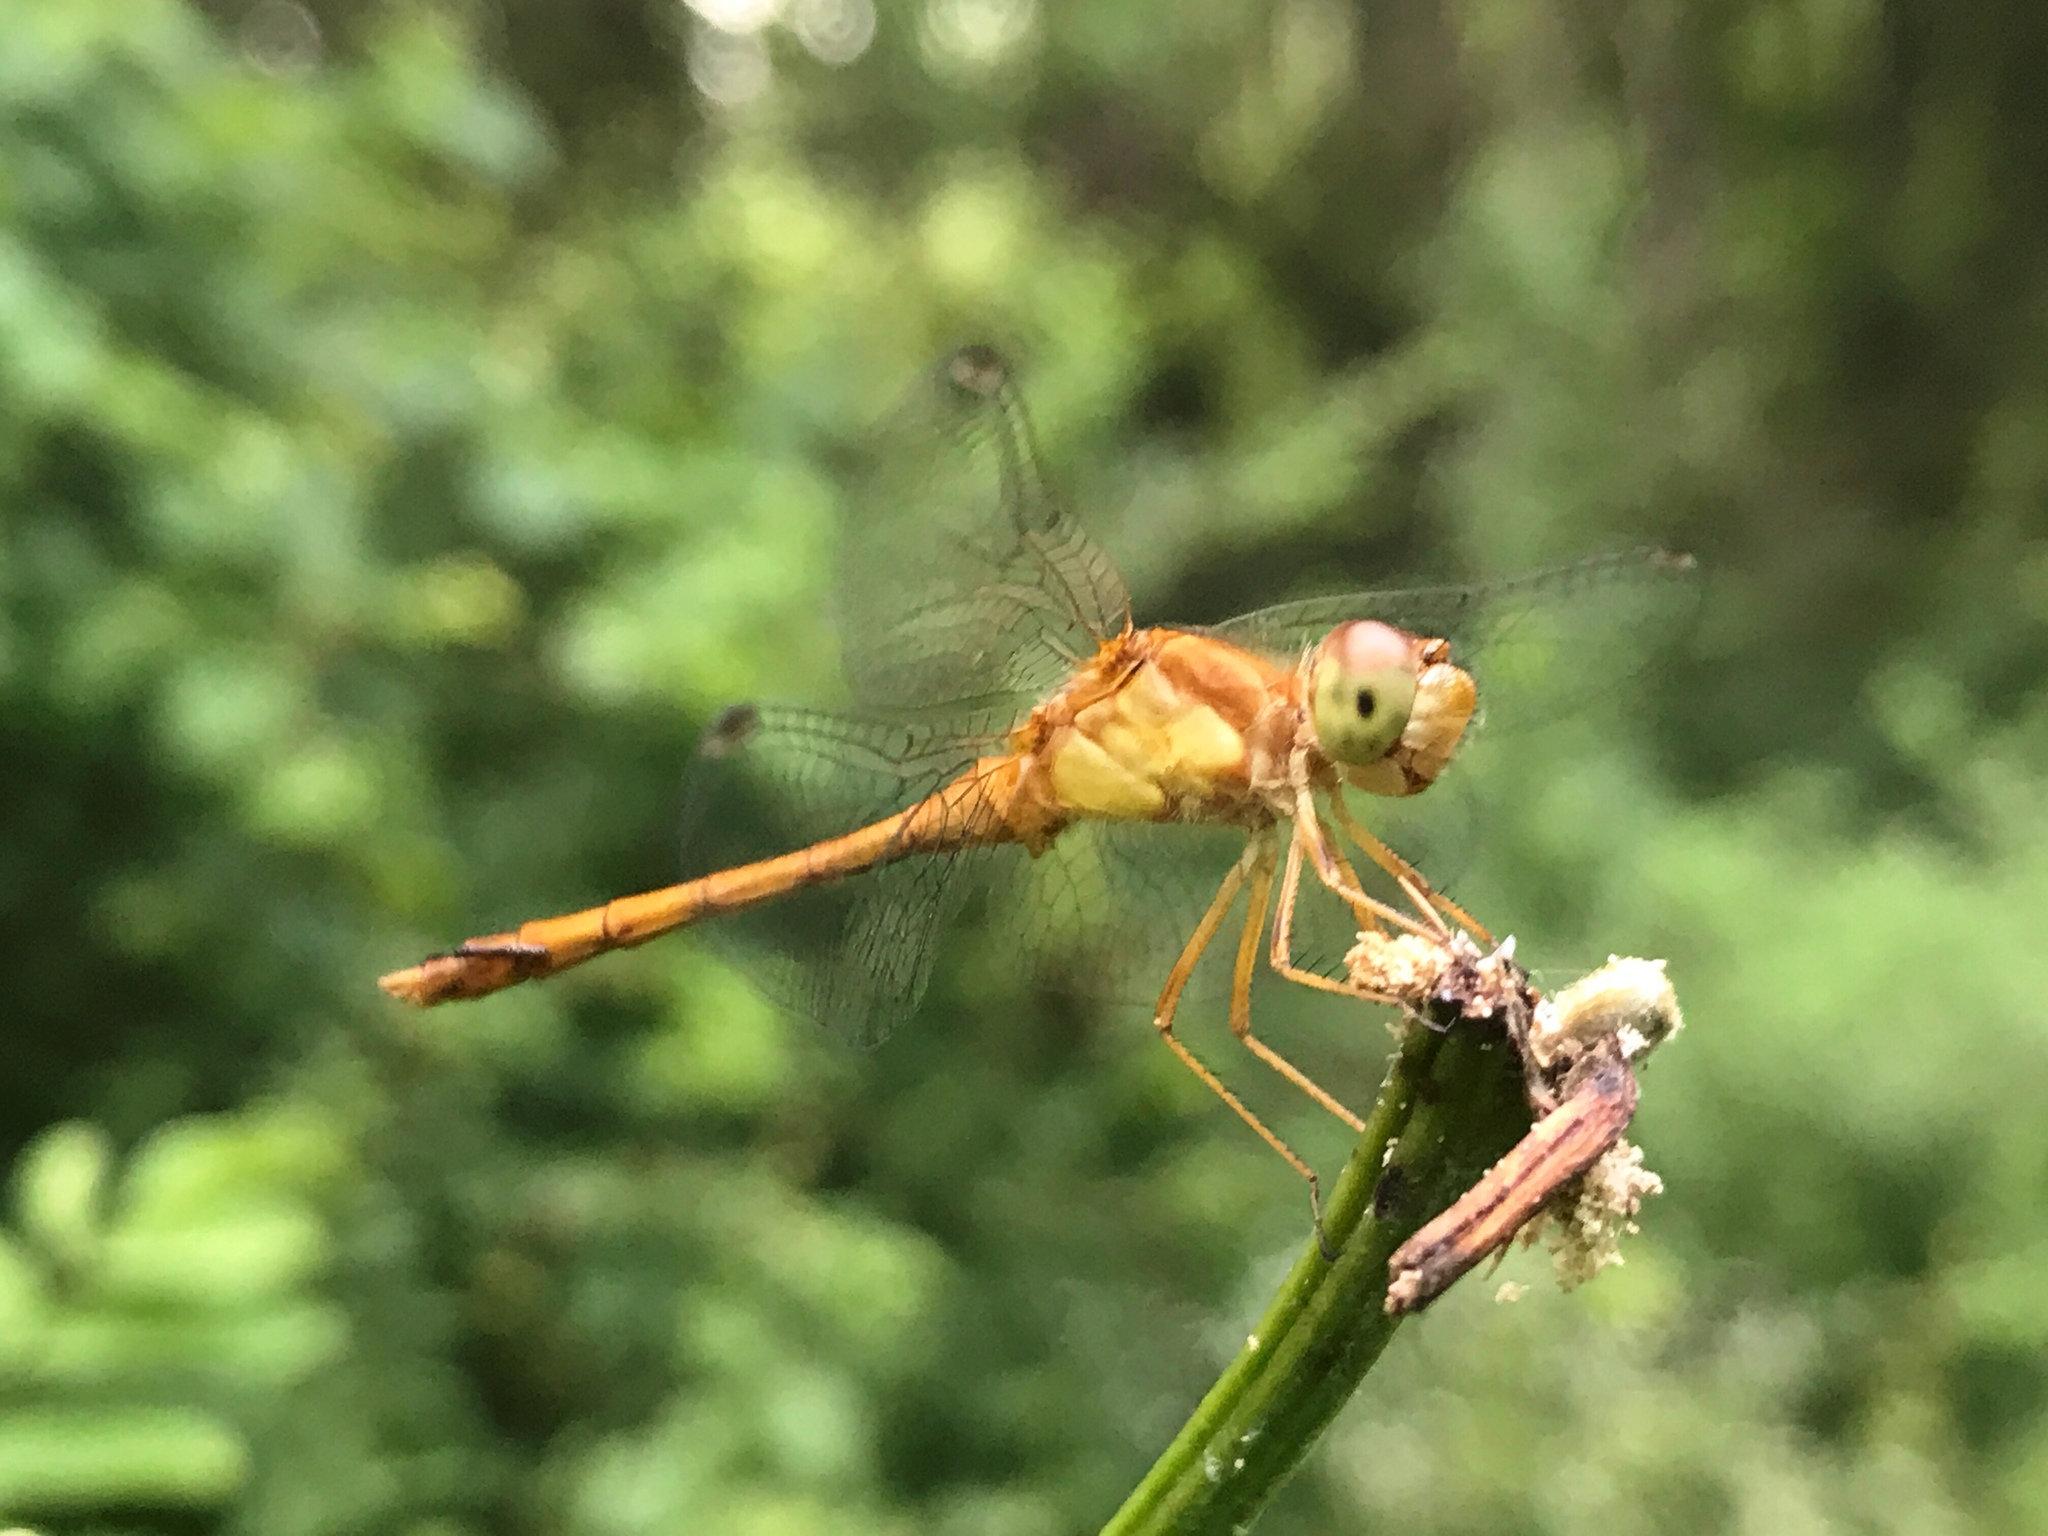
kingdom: Animalia
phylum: Arthropoda
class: Insecta
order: Odonata
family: Libellulidae
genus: Sympetrum
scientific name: Sympetrum vicinum
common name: Autumn meadowhawk
